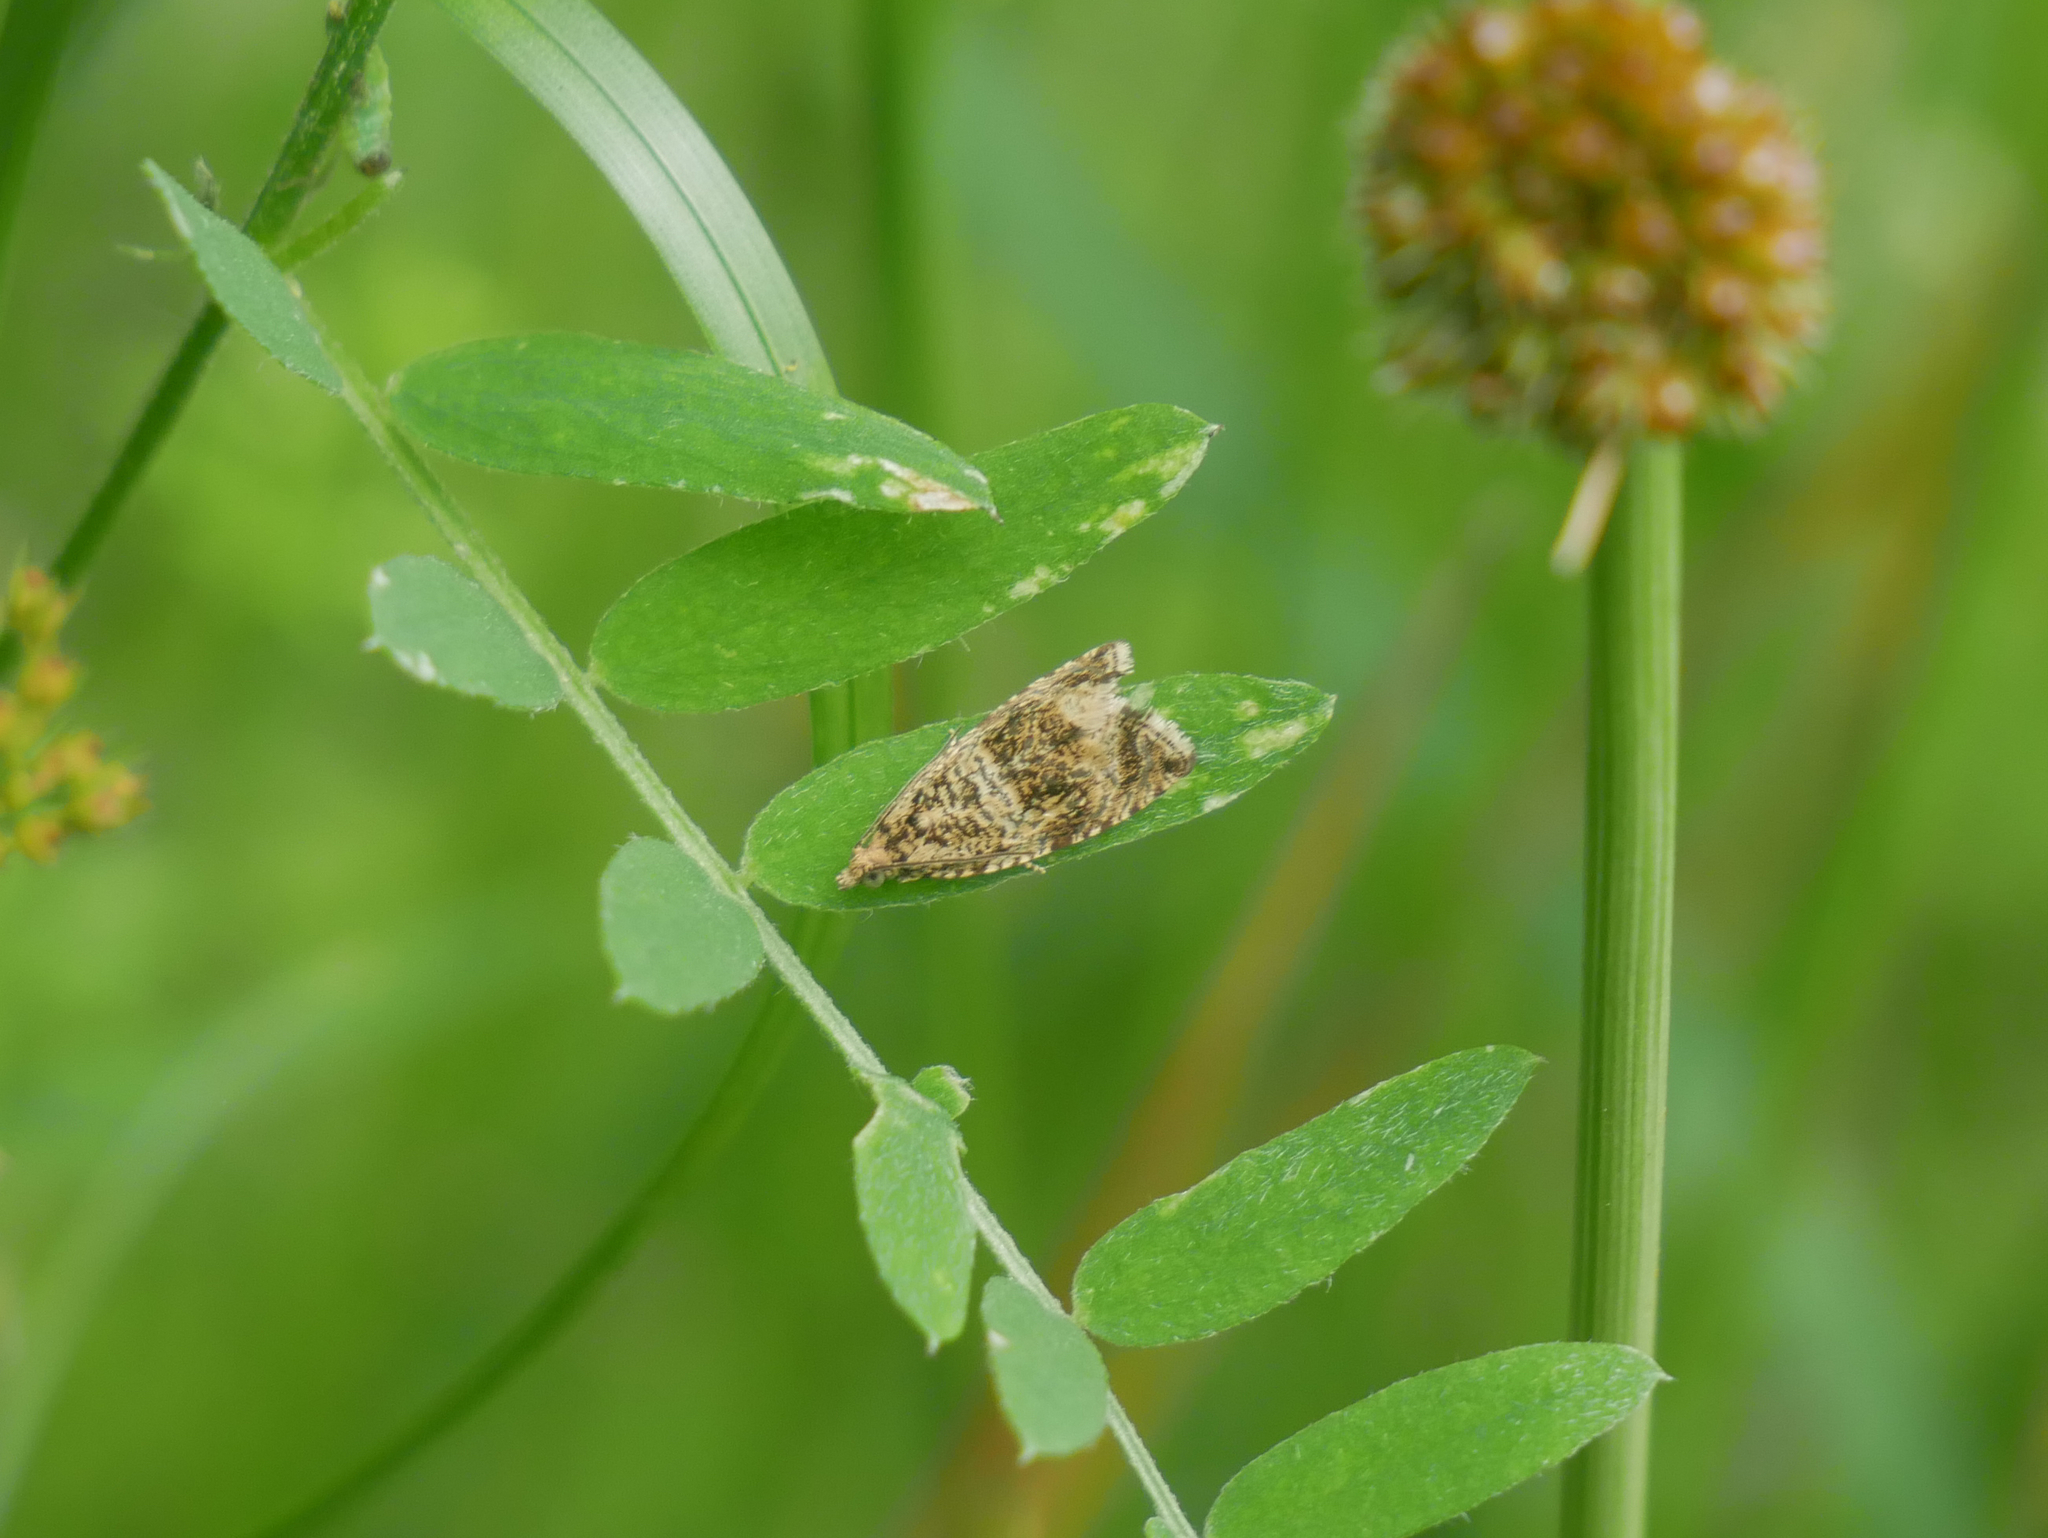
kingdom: Animalia
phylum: Arthropoda
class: Insecta
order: Lepidoptera
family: Tortricidae
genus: Syricoris
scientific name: Syricoris lacunana
